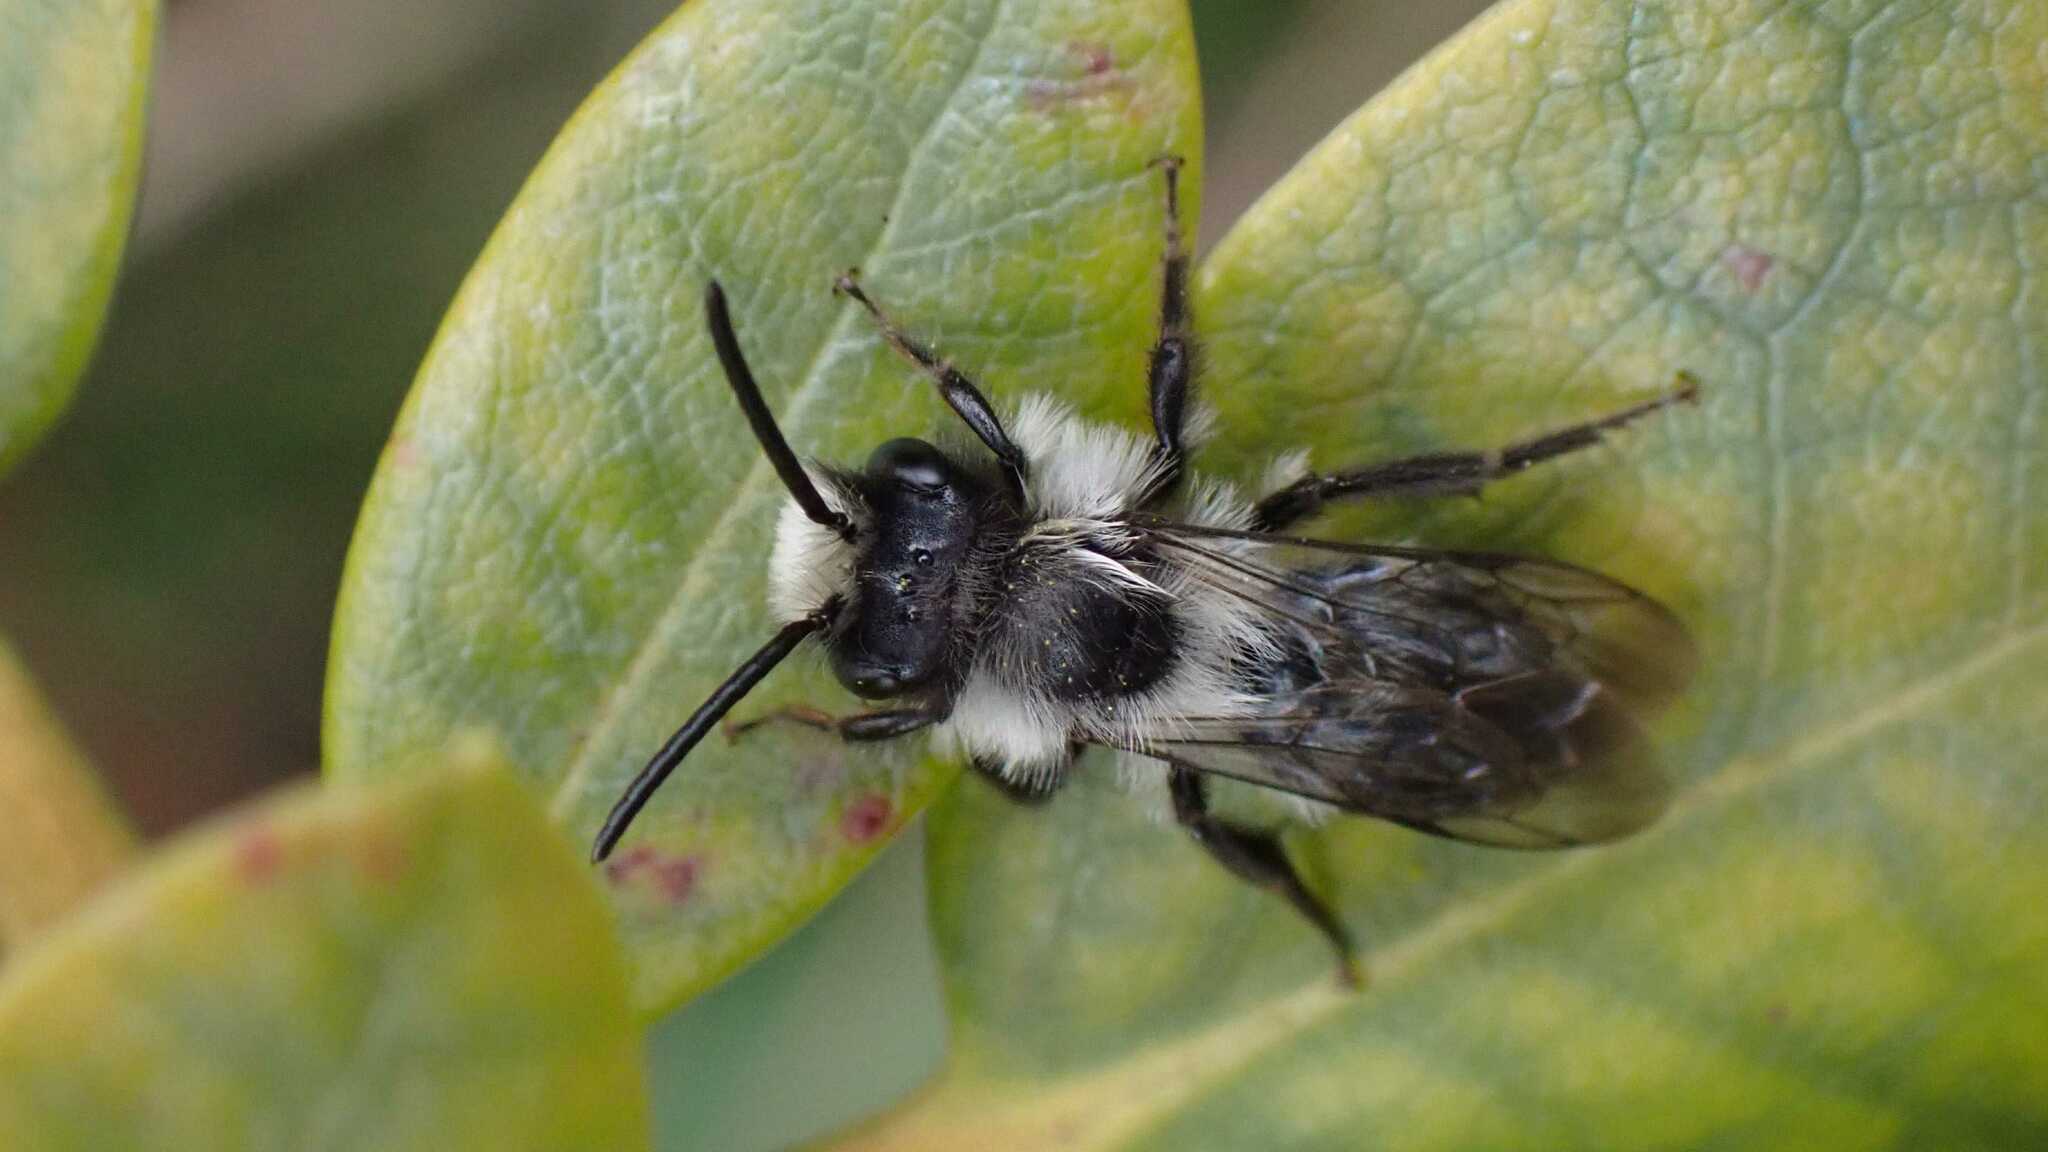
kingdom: Animalia
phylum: Arthropoda
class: Insecta
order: Hymenoptera
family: Andrenidae
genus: Andrena
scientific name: Andrena cineraria
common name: Ashy mining bee
